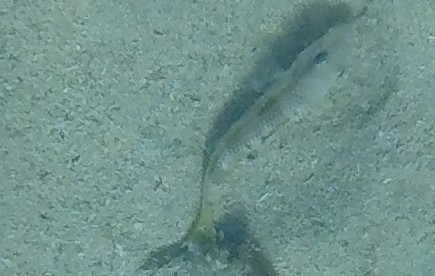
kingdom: Animalia
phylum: Chordata
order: Perciformes
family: Mullidae
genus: Mullus
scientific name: Mullus
